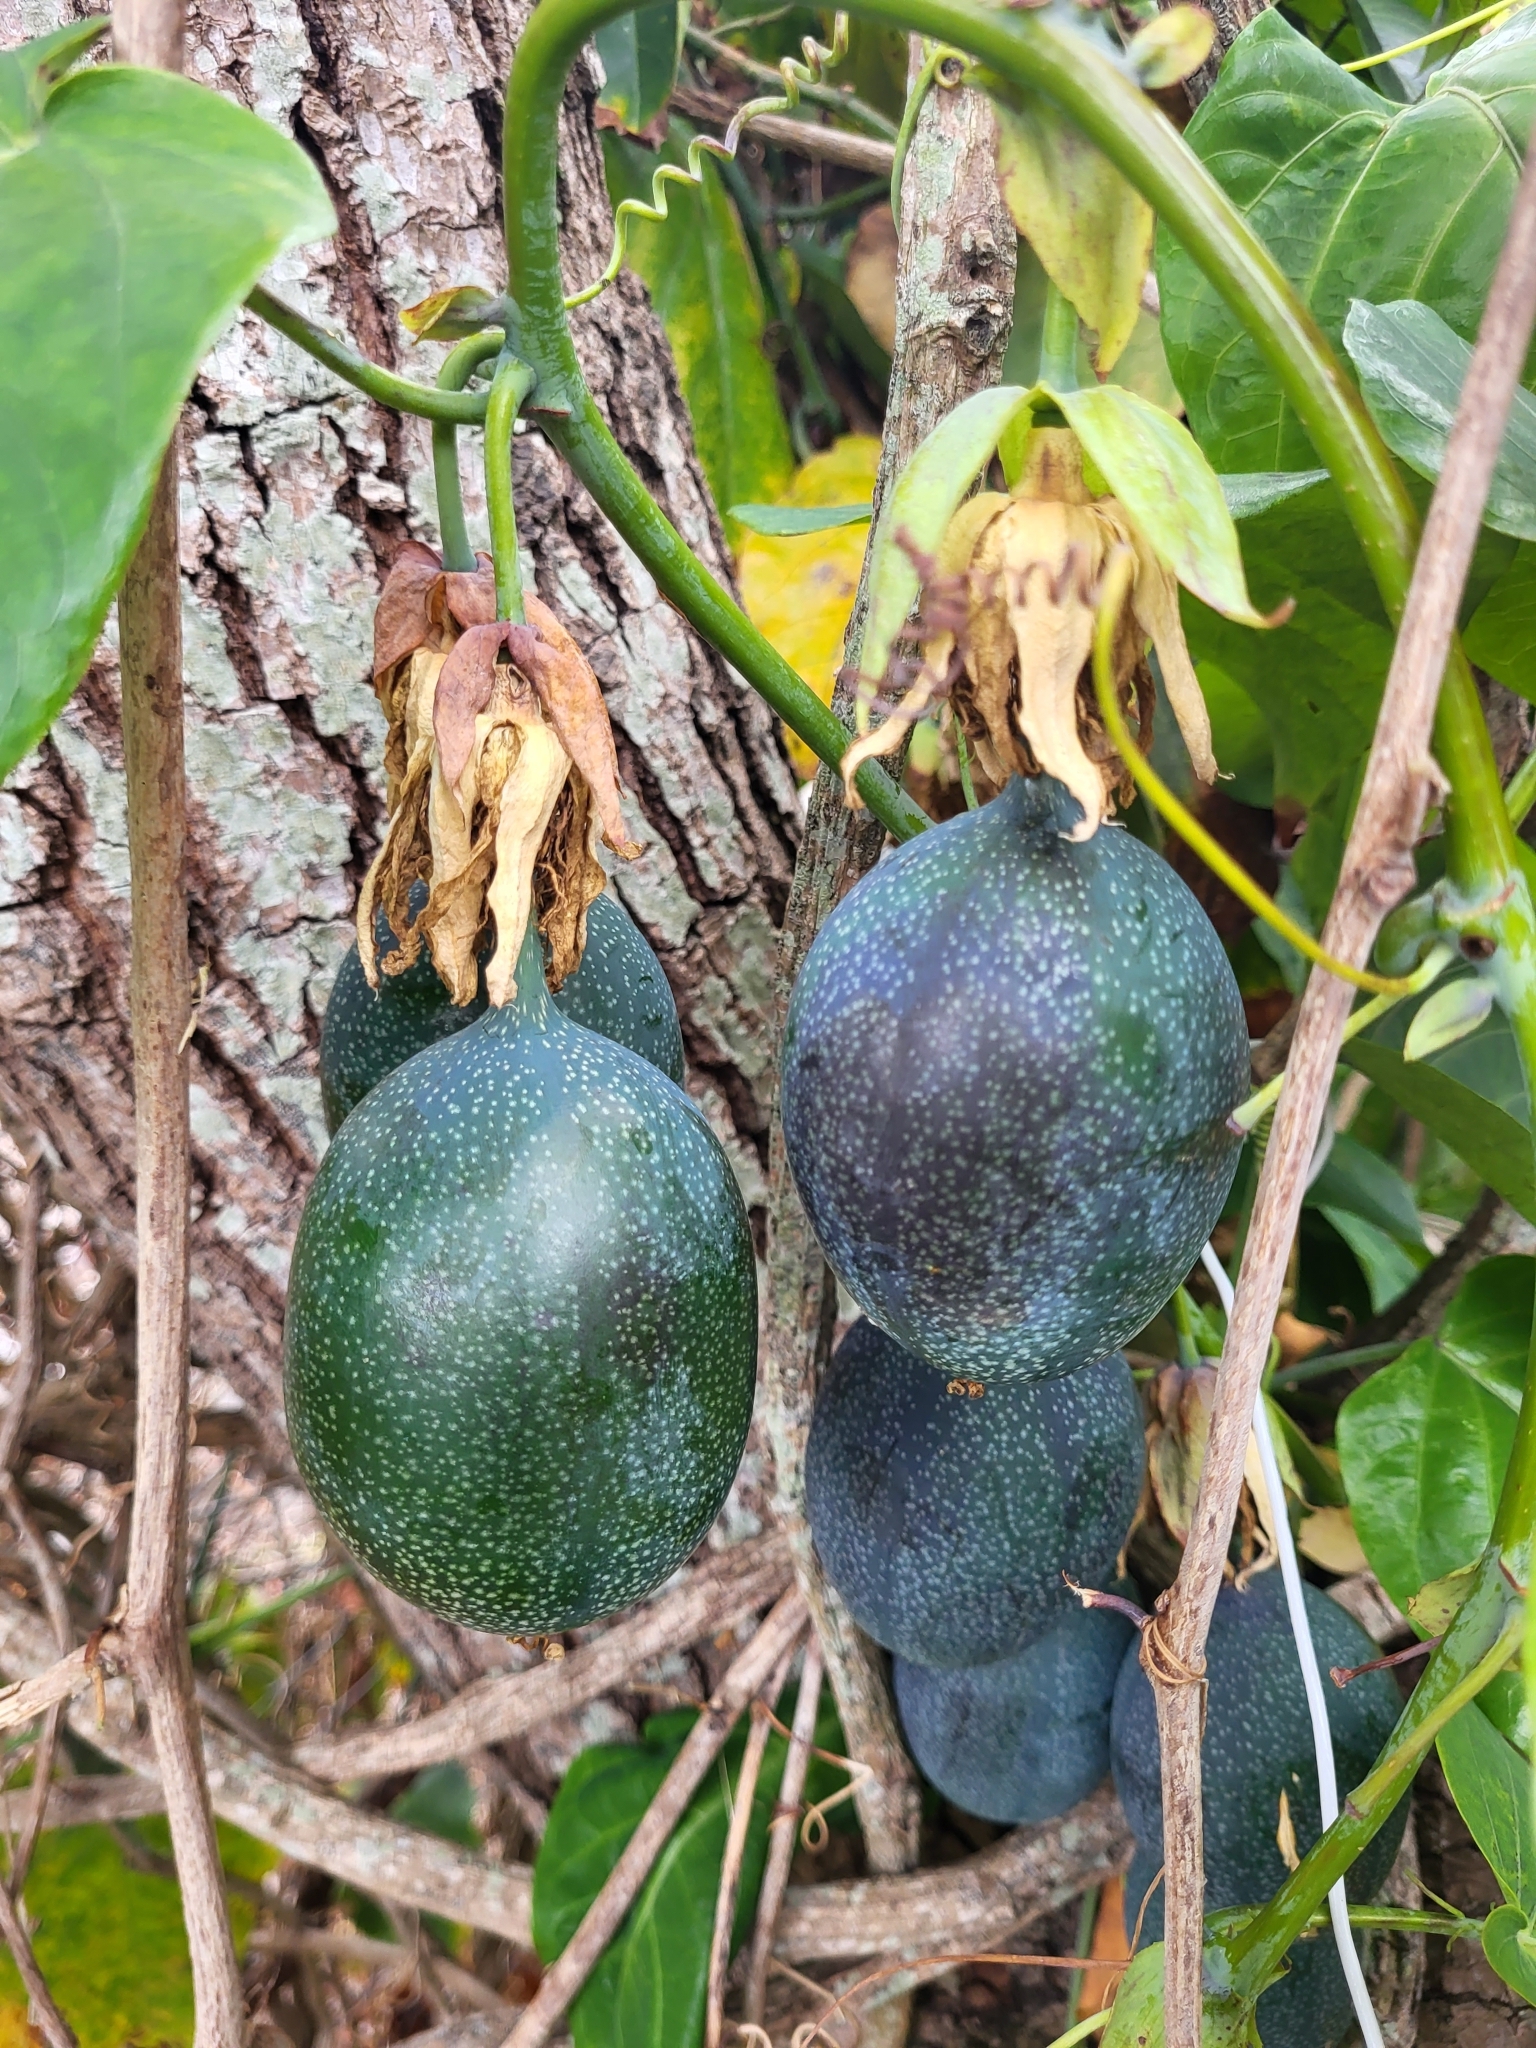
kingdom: Plantae
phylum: Tracheophyta
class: Magnoliopsida
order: Malpighiales
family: Passifloraceae
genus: Passiflora
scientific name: Passiflora ligularis
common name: Sweet granadilla
